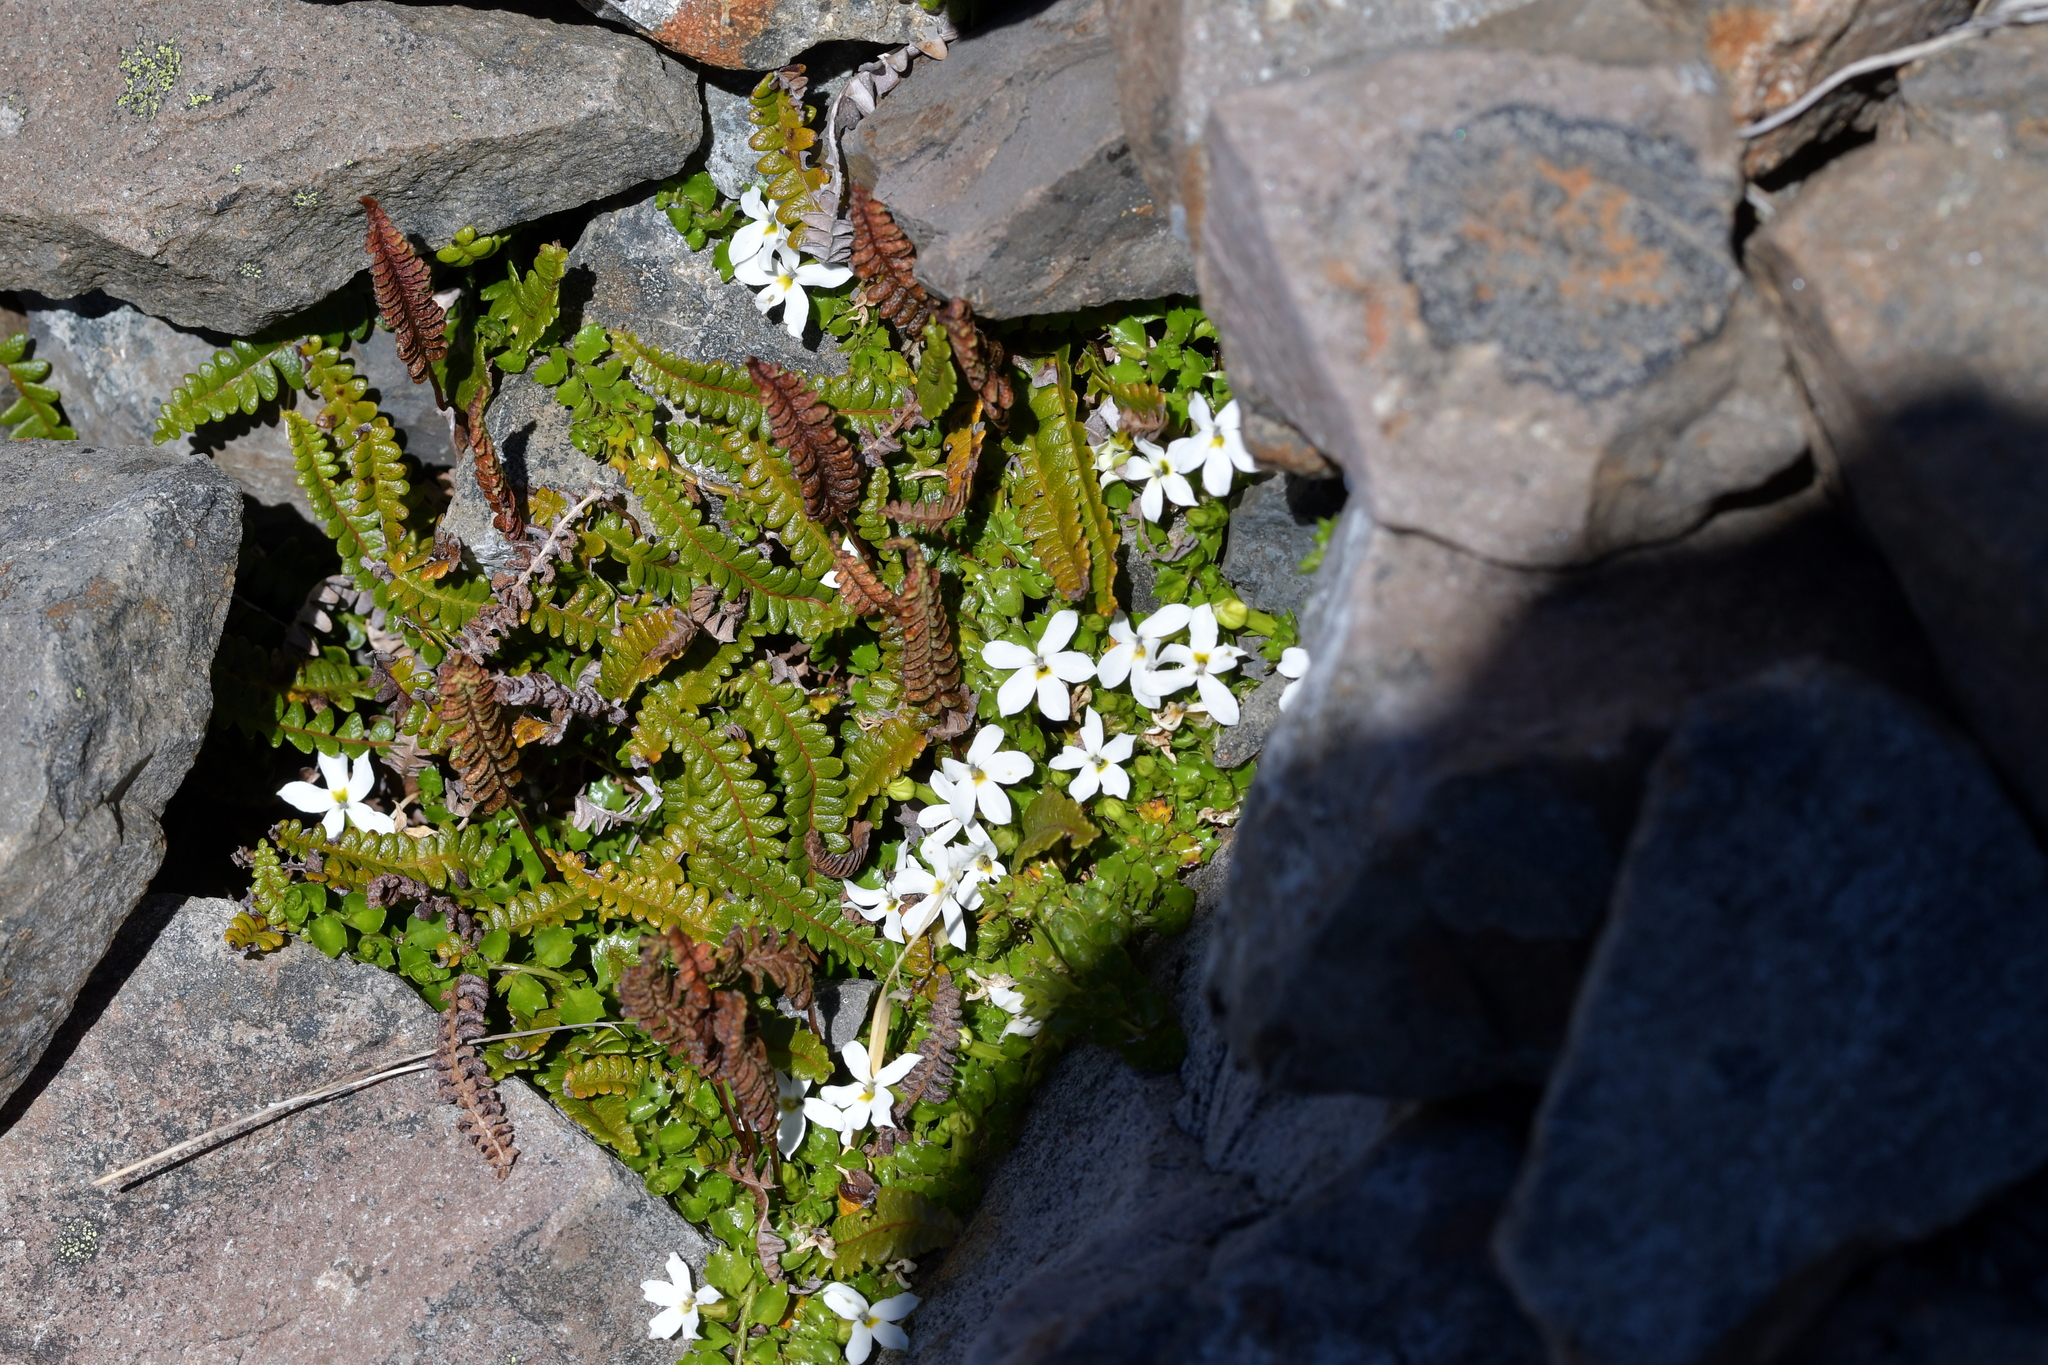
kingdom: Plantae
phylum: Tracheophyta
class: Magnoliopsida
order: Asterales
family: Campanulaceae
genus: Lobelia
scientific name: Lobelia macrodon
